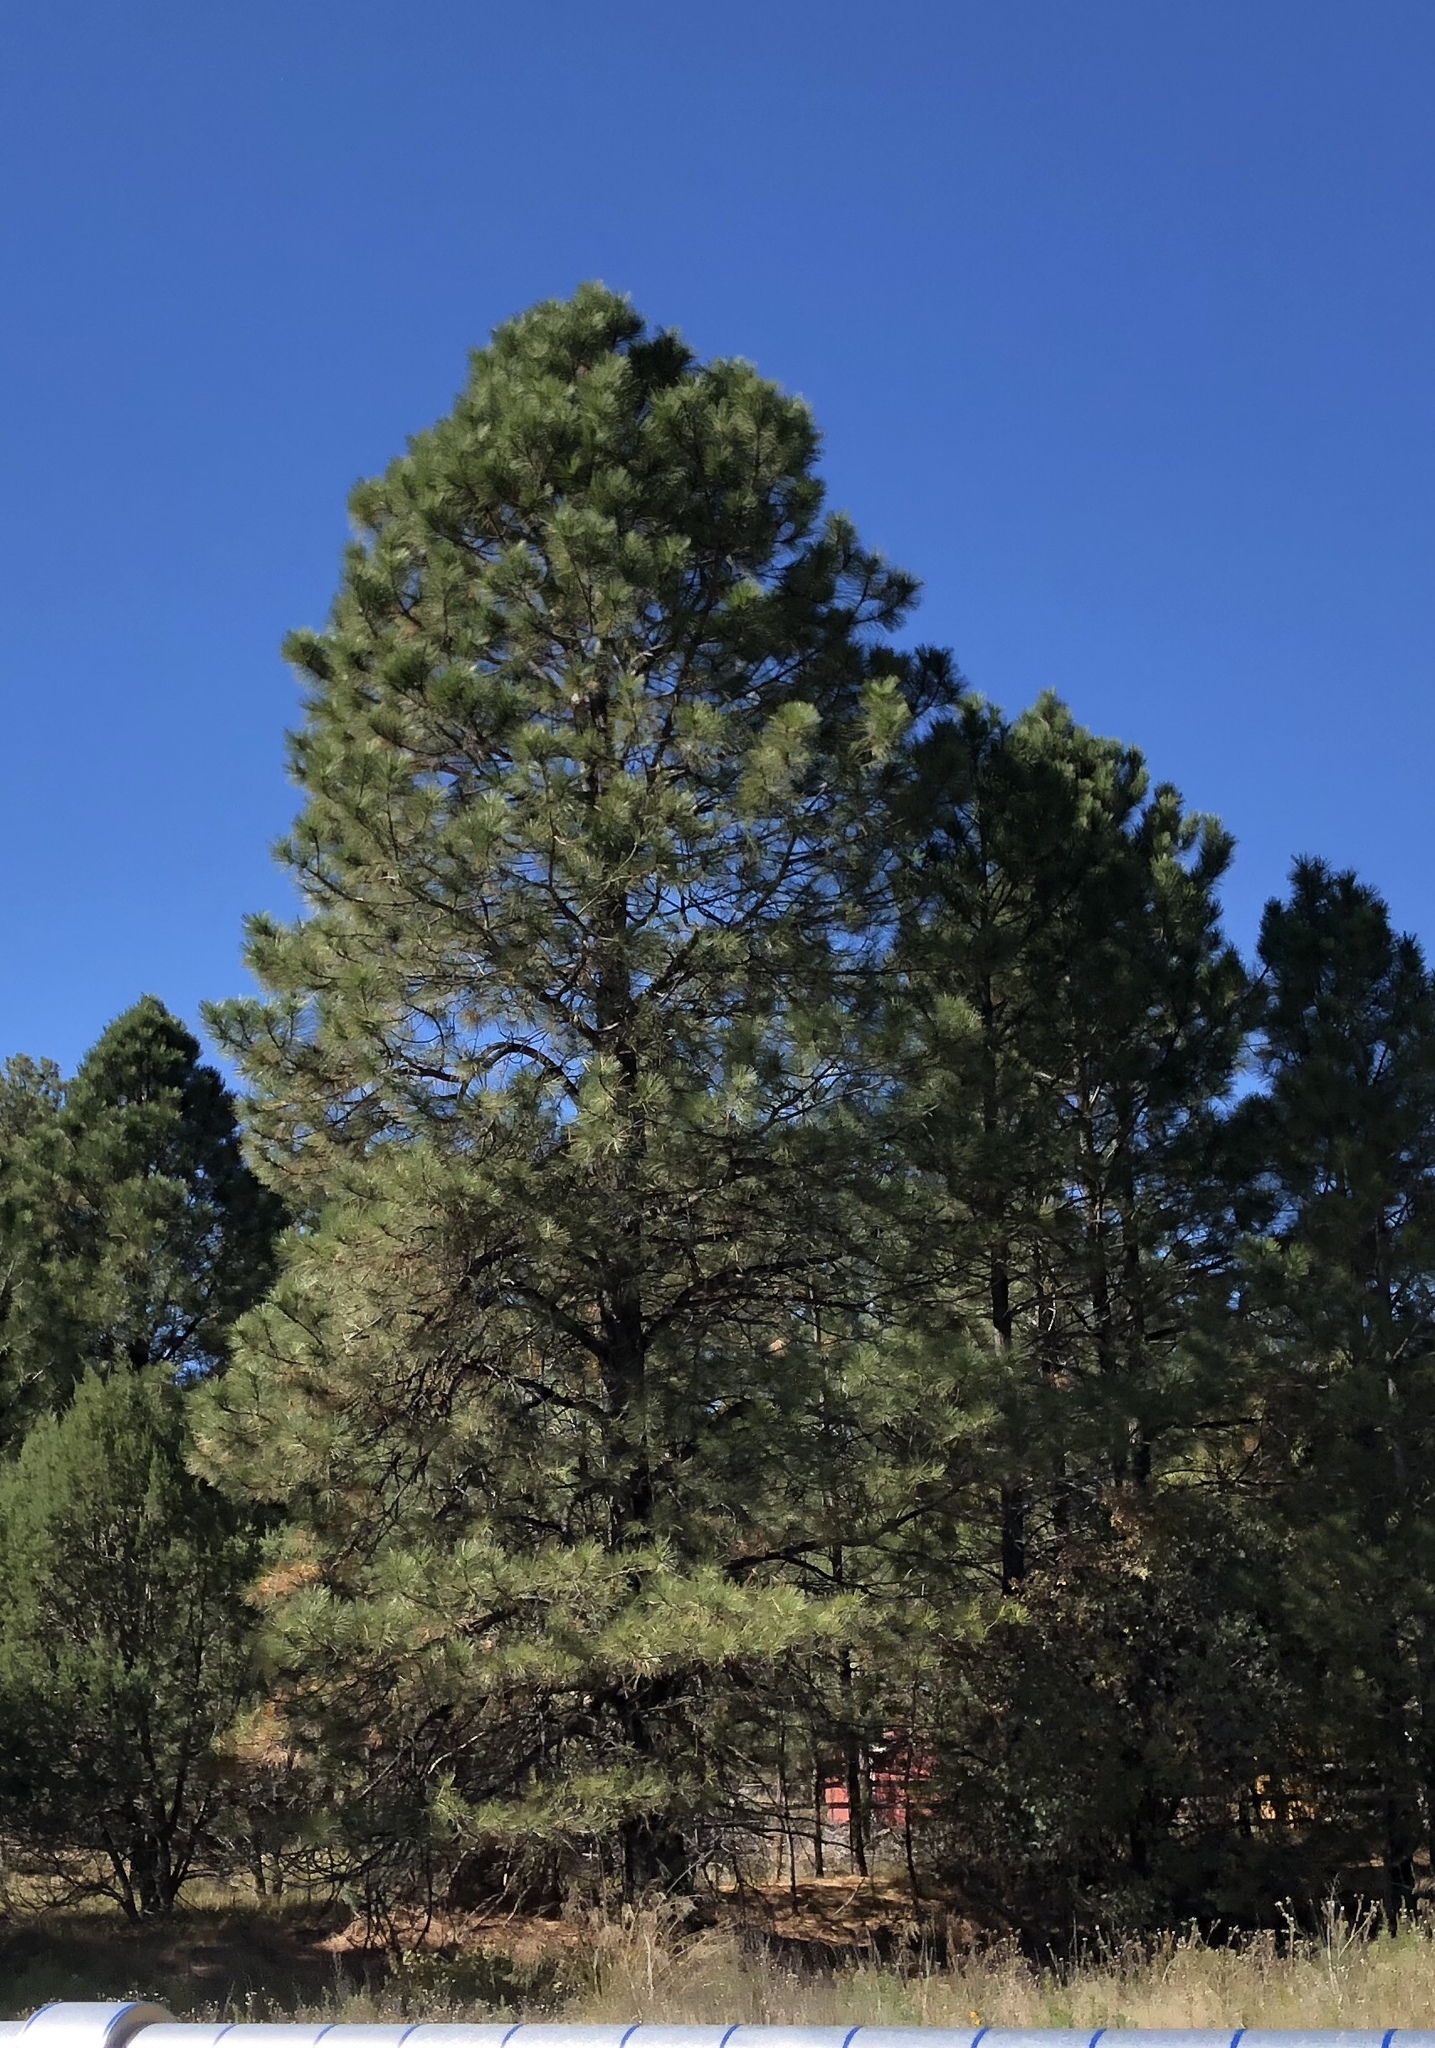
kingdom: Plantae
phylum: Tracheophyta
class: Pinopsida
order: Pinales
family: Pinaceae
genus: Pinus
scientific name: Pinus ponderosa
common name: Western yellow-pine
